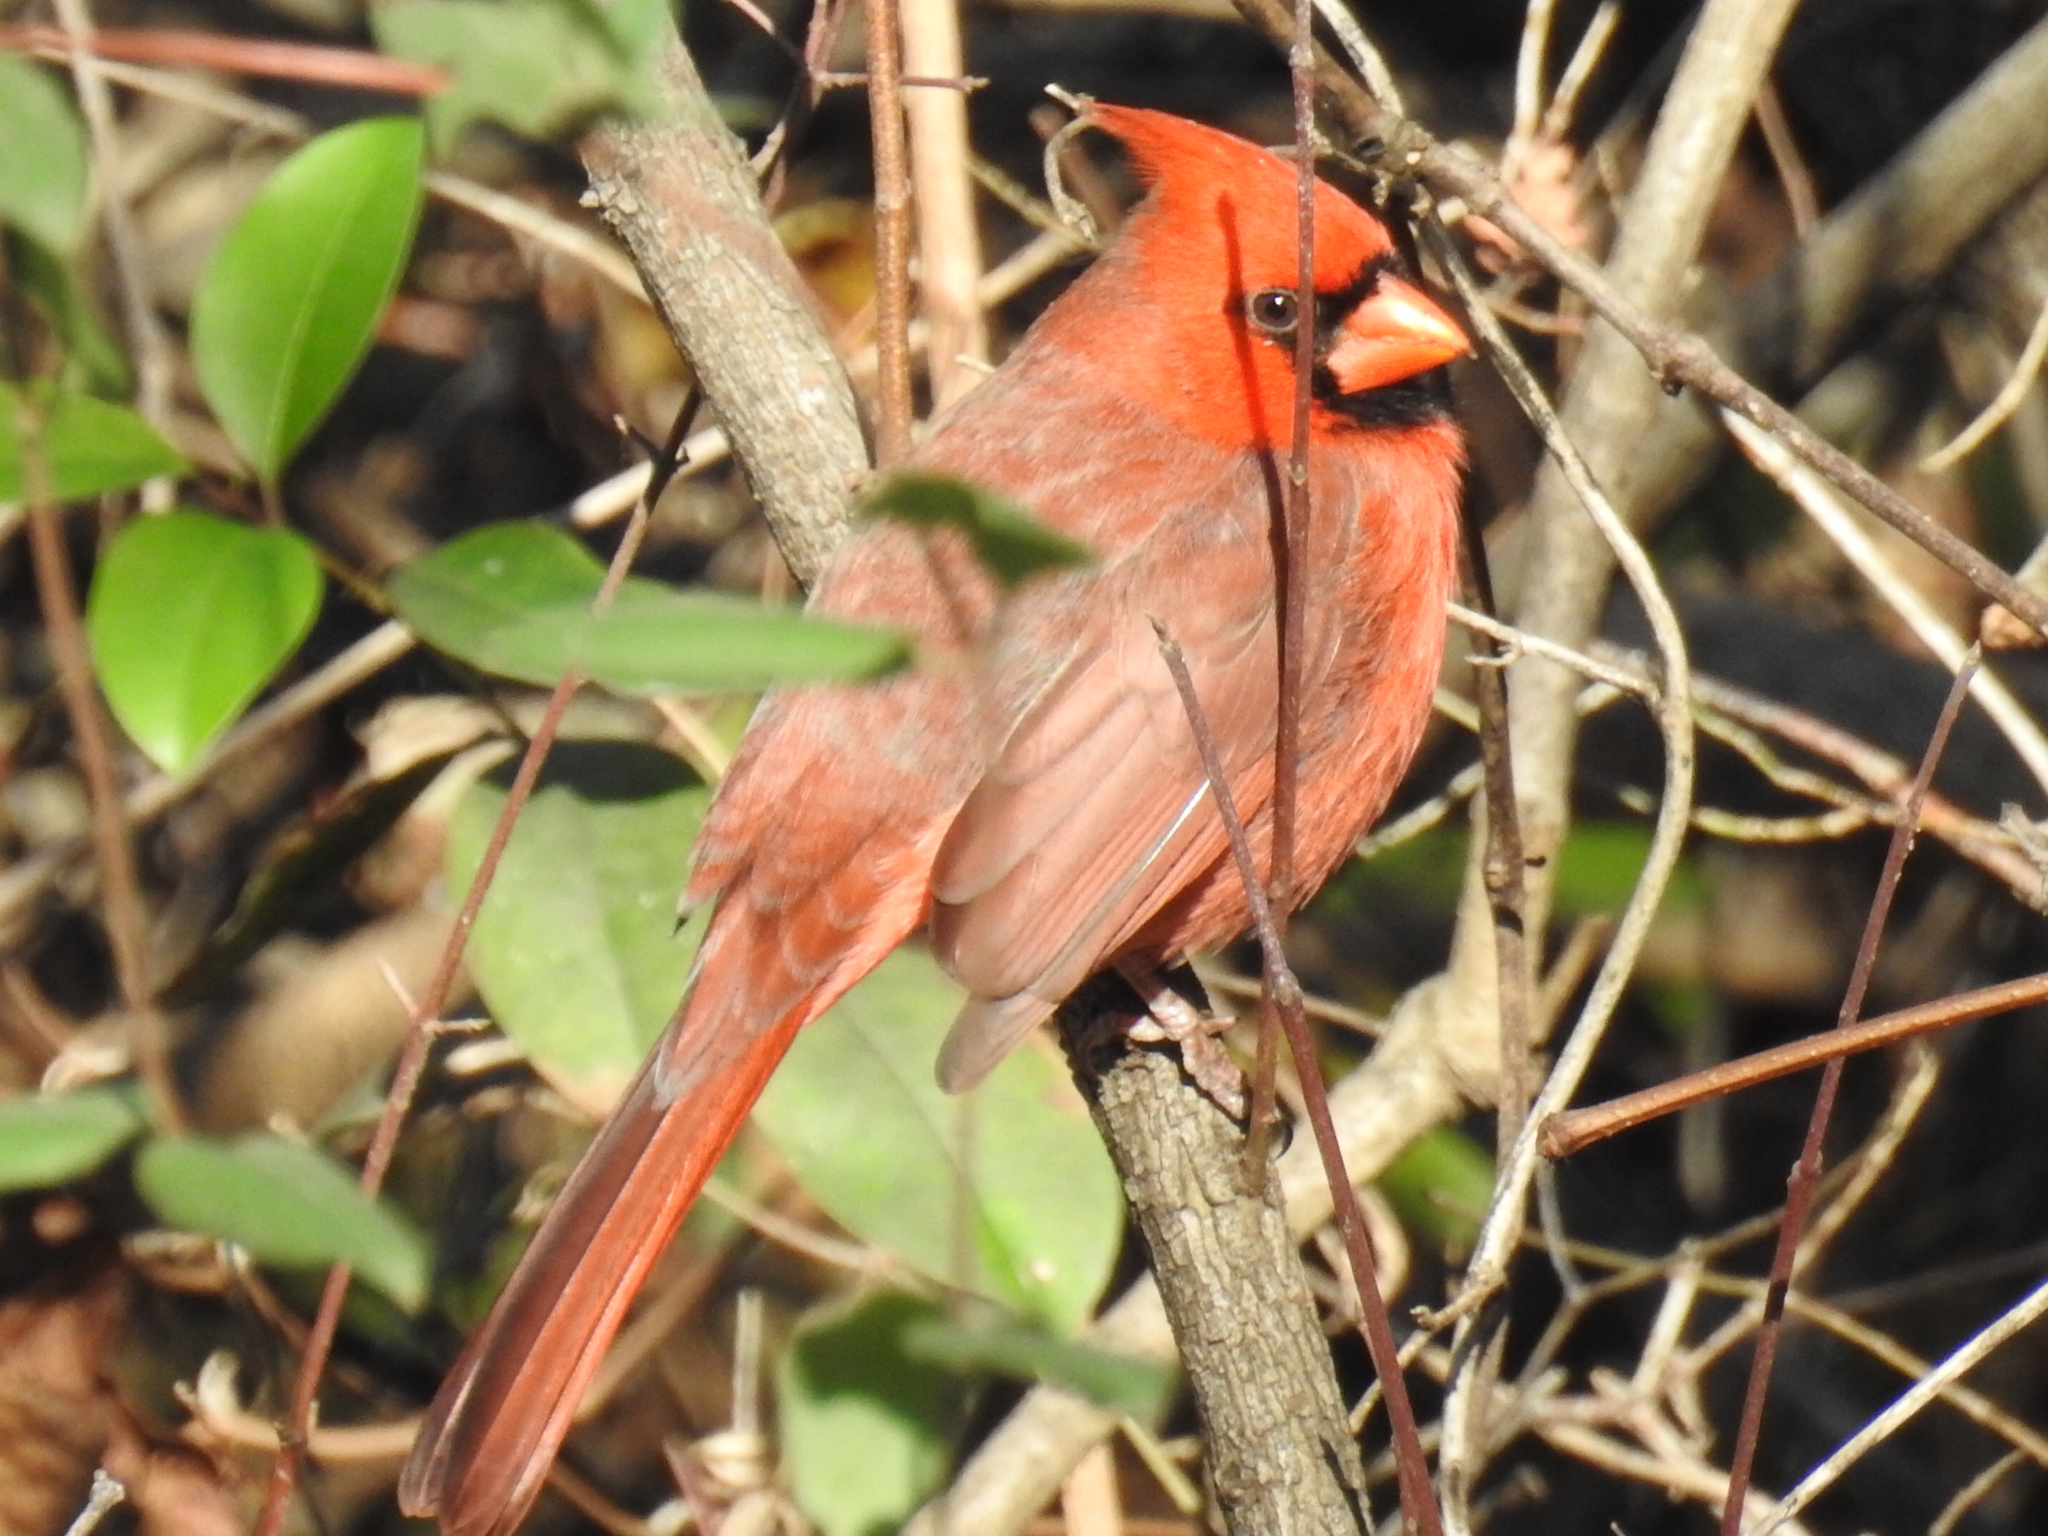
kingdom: Animalia
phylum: Chordata
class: Aves
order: Passeriformes
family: Cardinalidae
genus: Cardinalis
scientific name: Cardinalis cardinalis
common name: Northern cardinal
